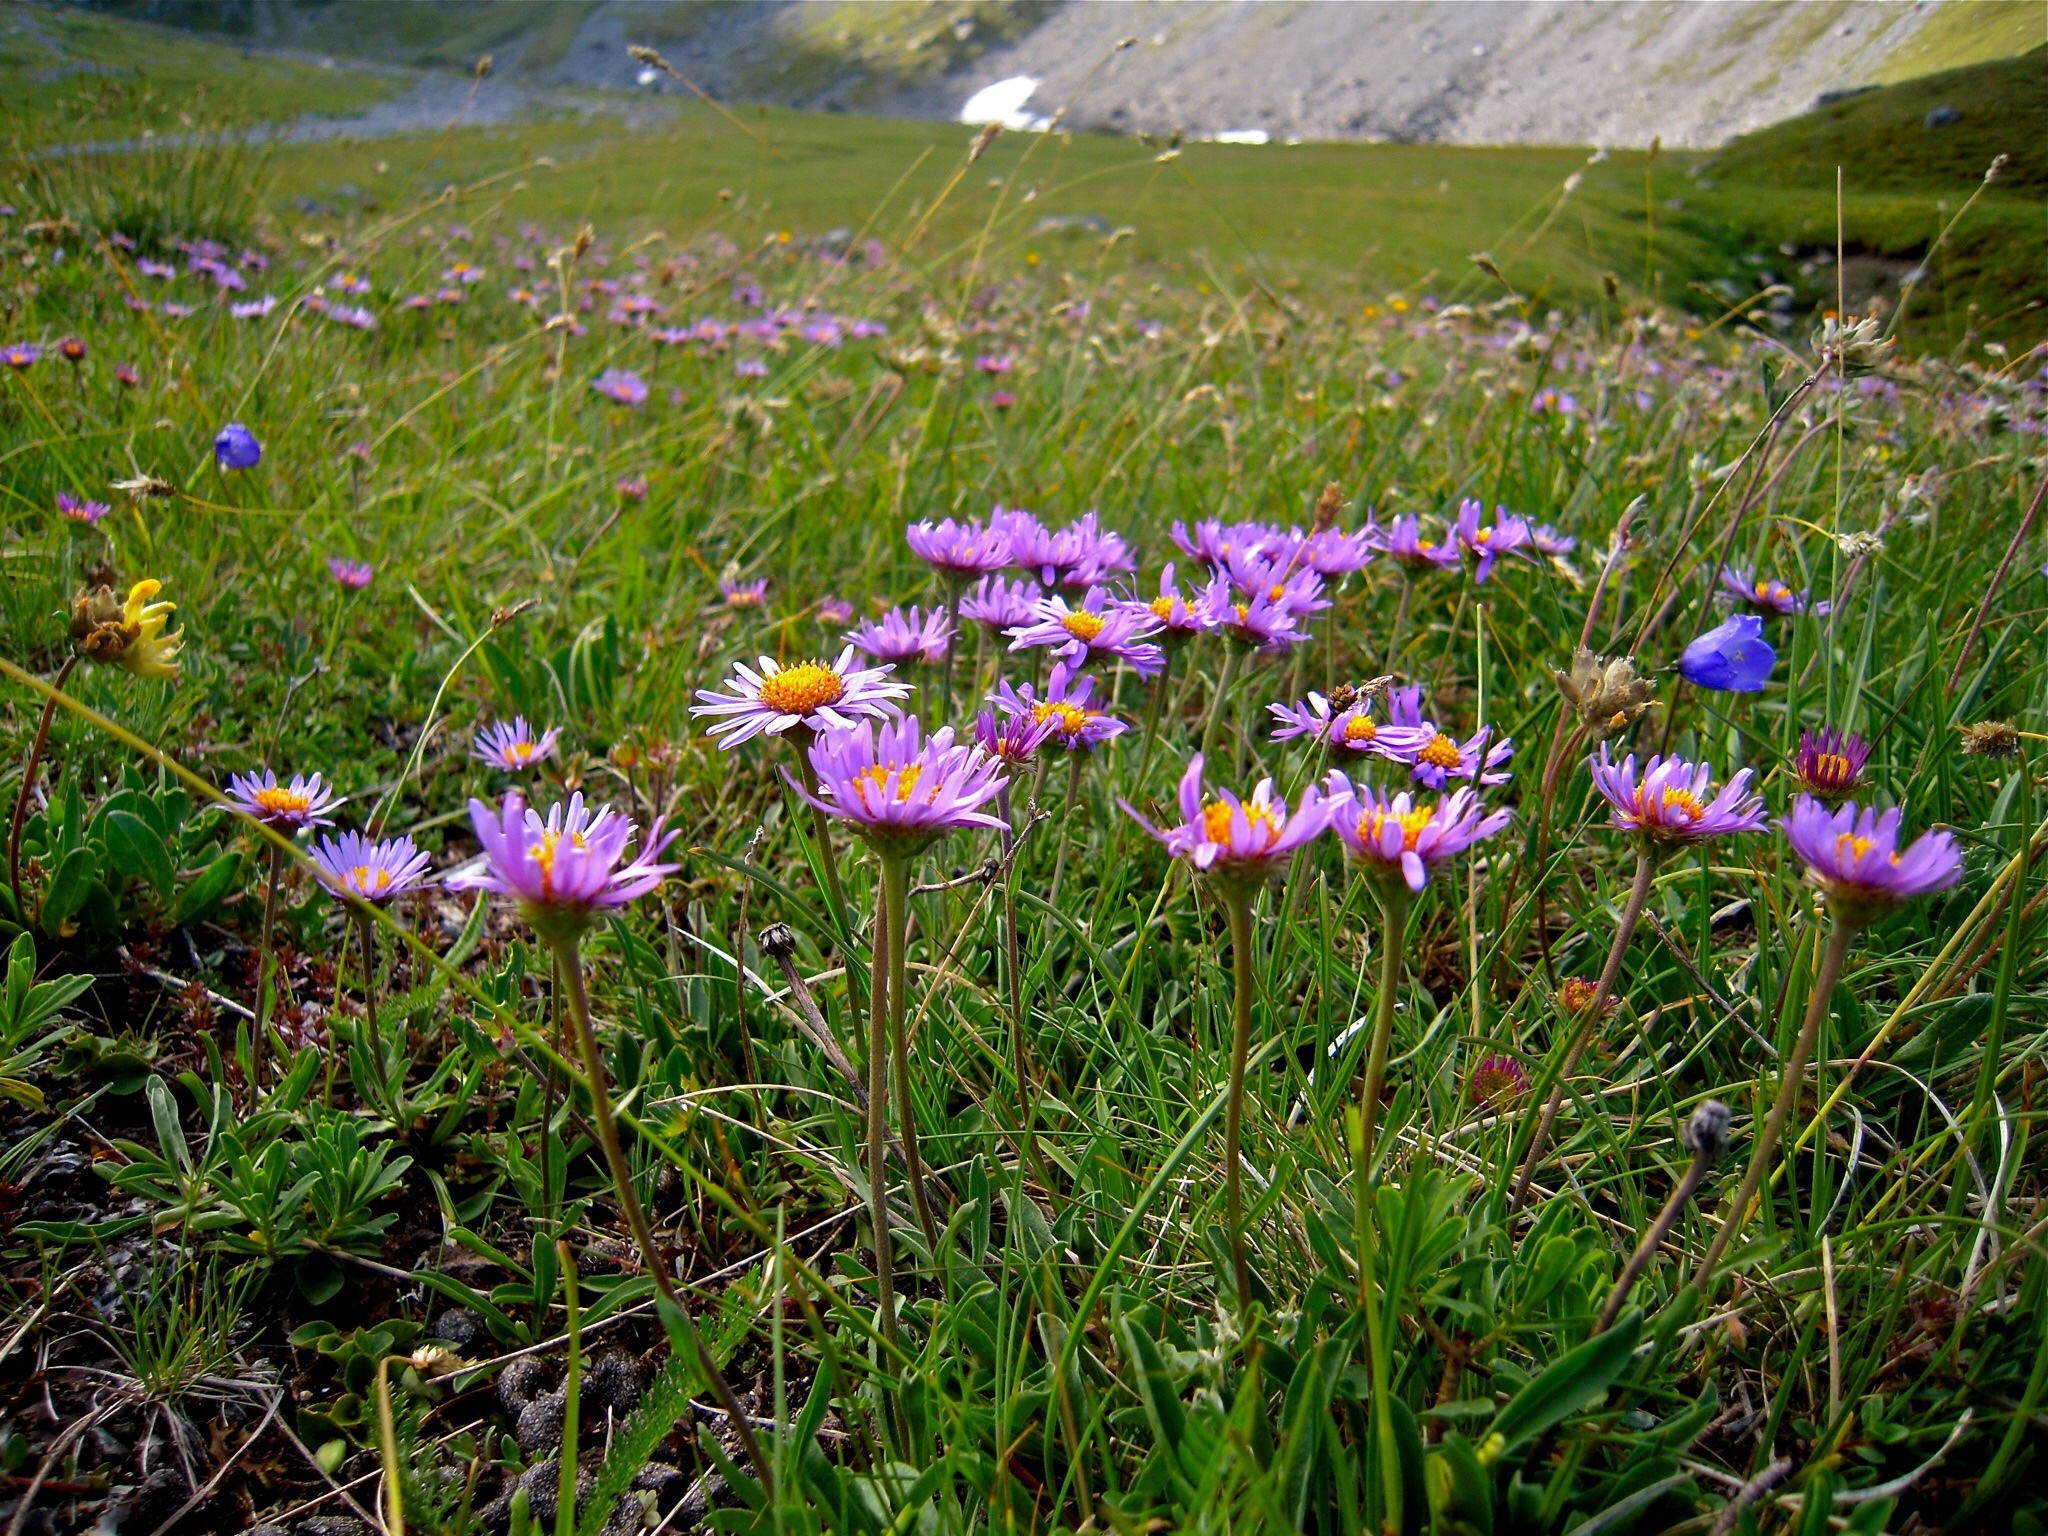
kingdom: Plantae
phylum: Tracheophyta
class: Magnoliopsida
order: Asterales
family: Asteraceae
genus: Aster
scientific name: Aster alpinus
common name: Alpine aster
